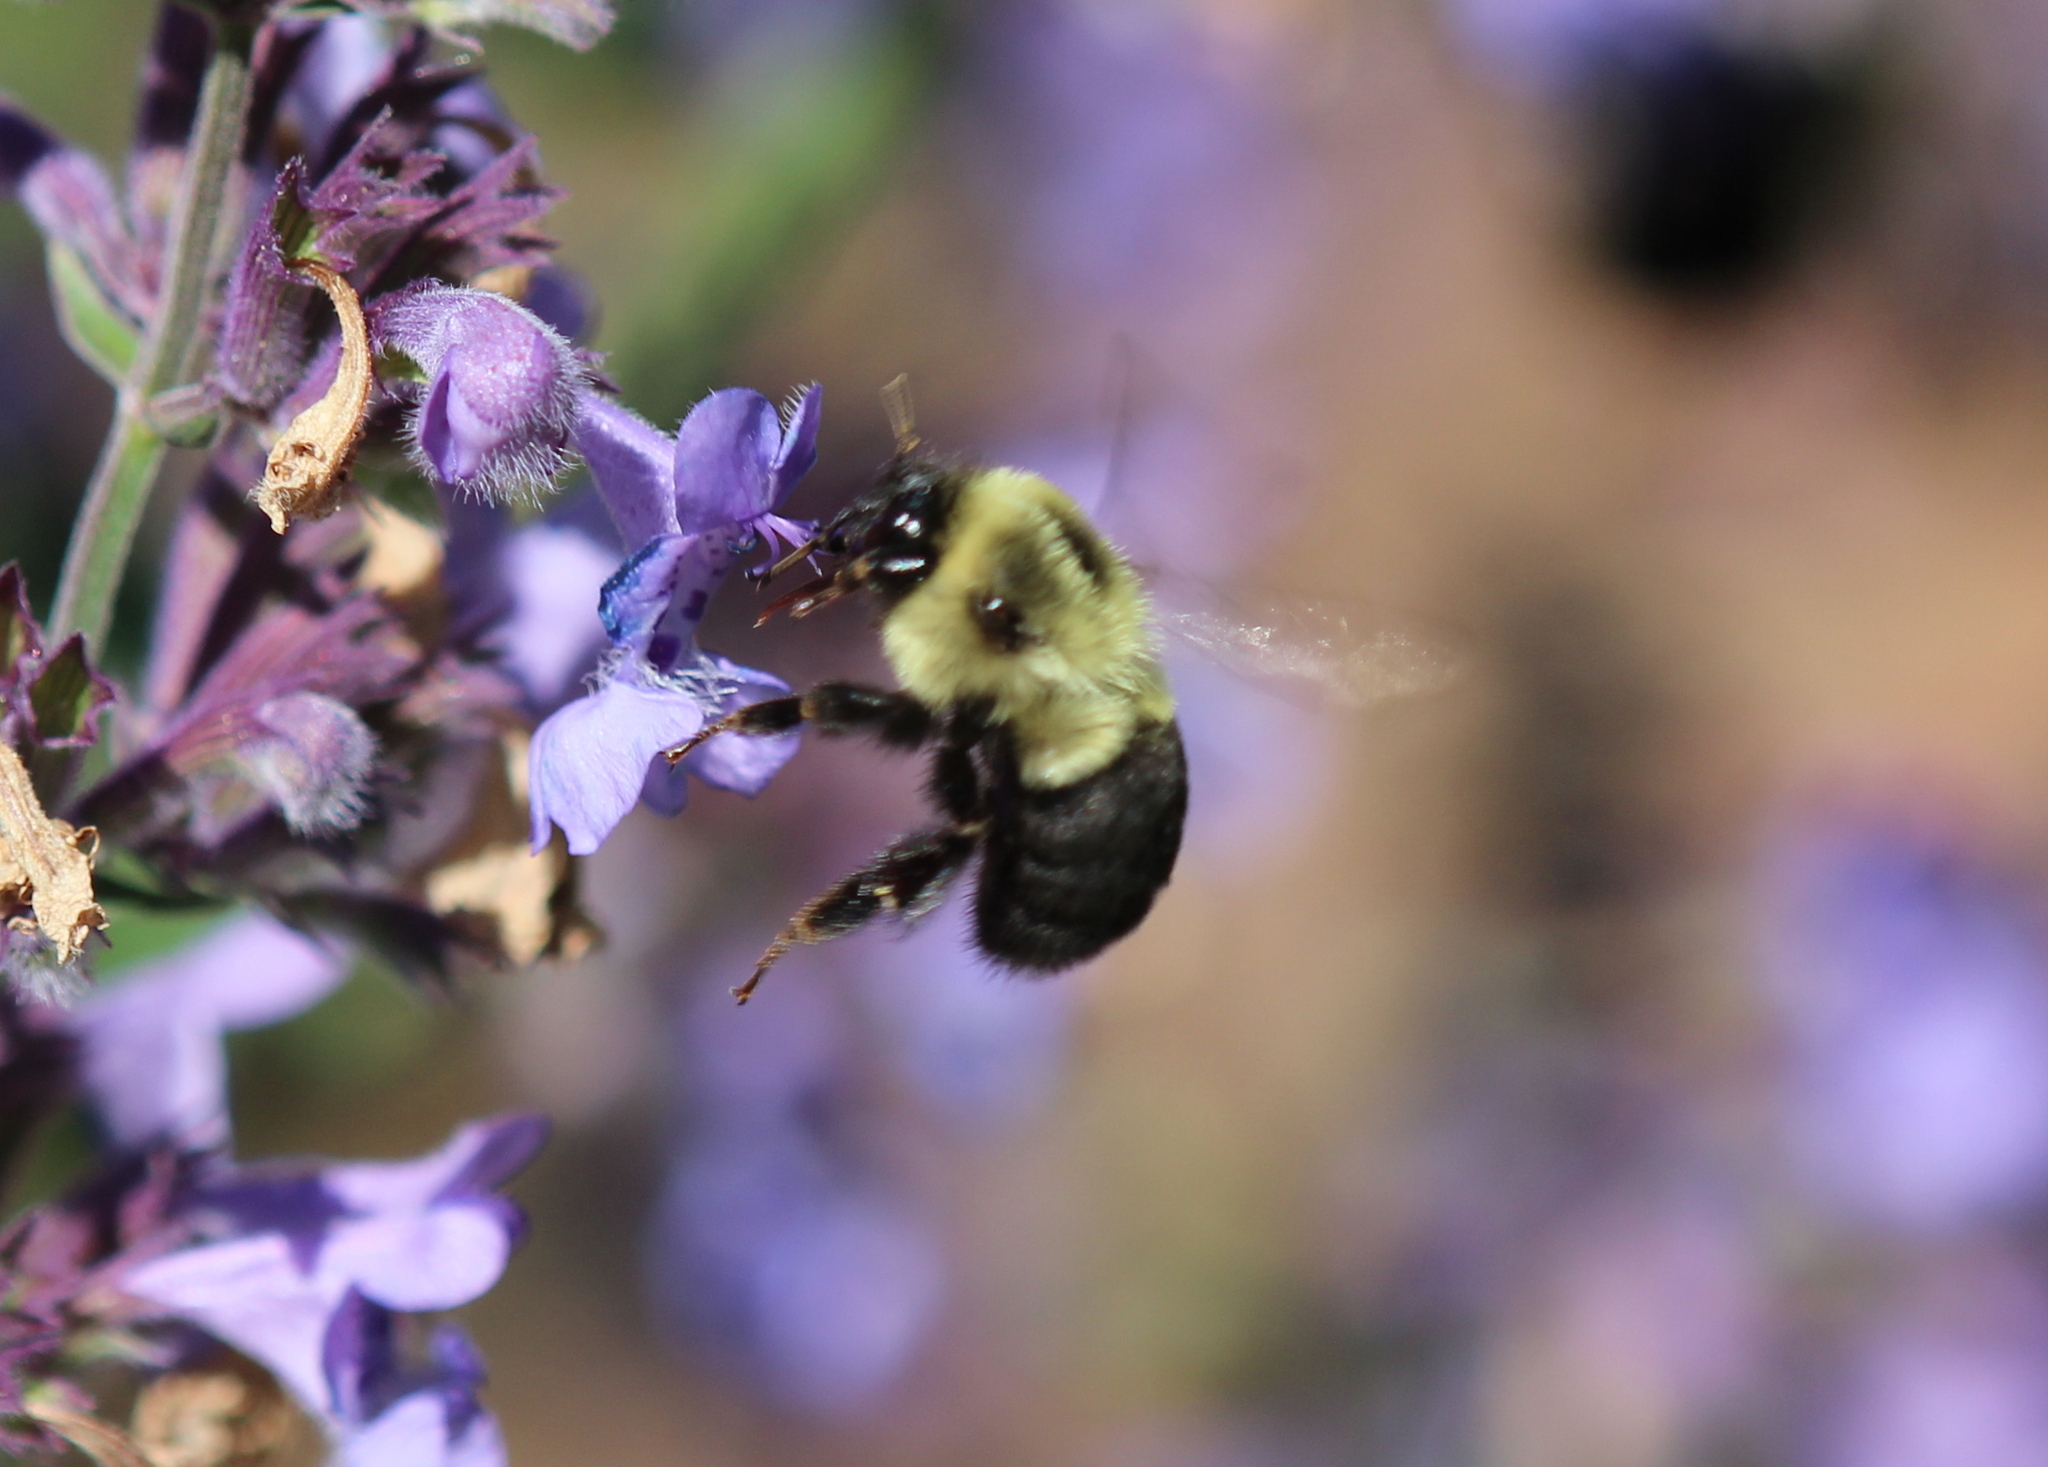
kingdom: Animalia
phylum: Arthropoda
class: Insecta
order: Hymenoptera
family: Apidae
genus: Bombus
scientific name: Bombus impatiens
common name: Common eastern bumble bee
